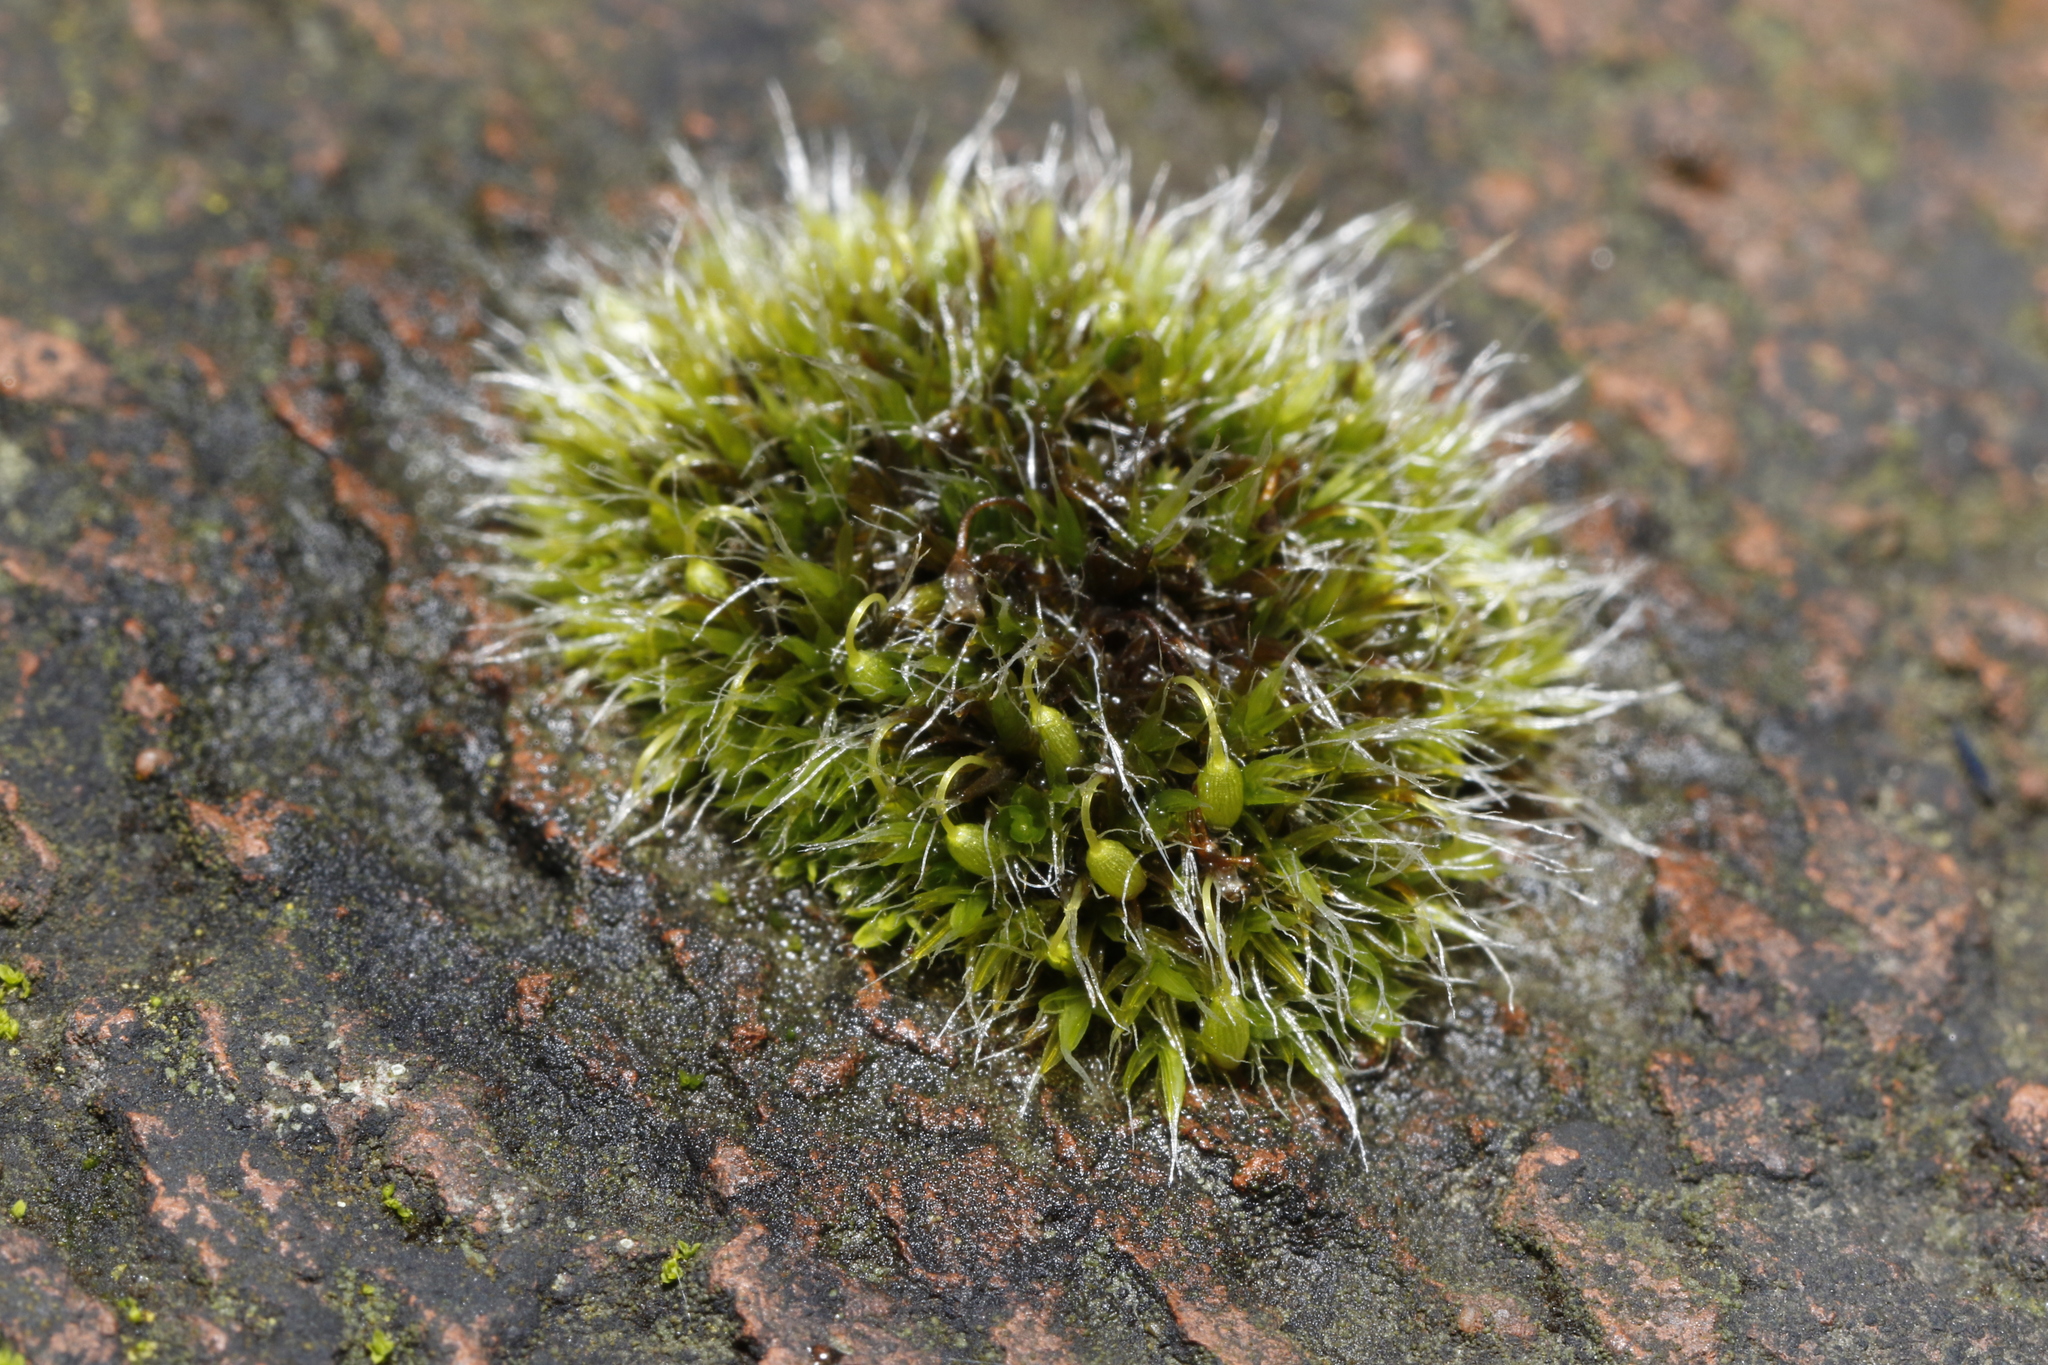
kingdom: Plantae
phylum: Bryophyta
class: Bryopsida
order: Grimmiales
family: Grimmiaceae
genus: Grimmia
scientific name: Grimmia pulvinata
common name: Grey-cushioned grimmia
